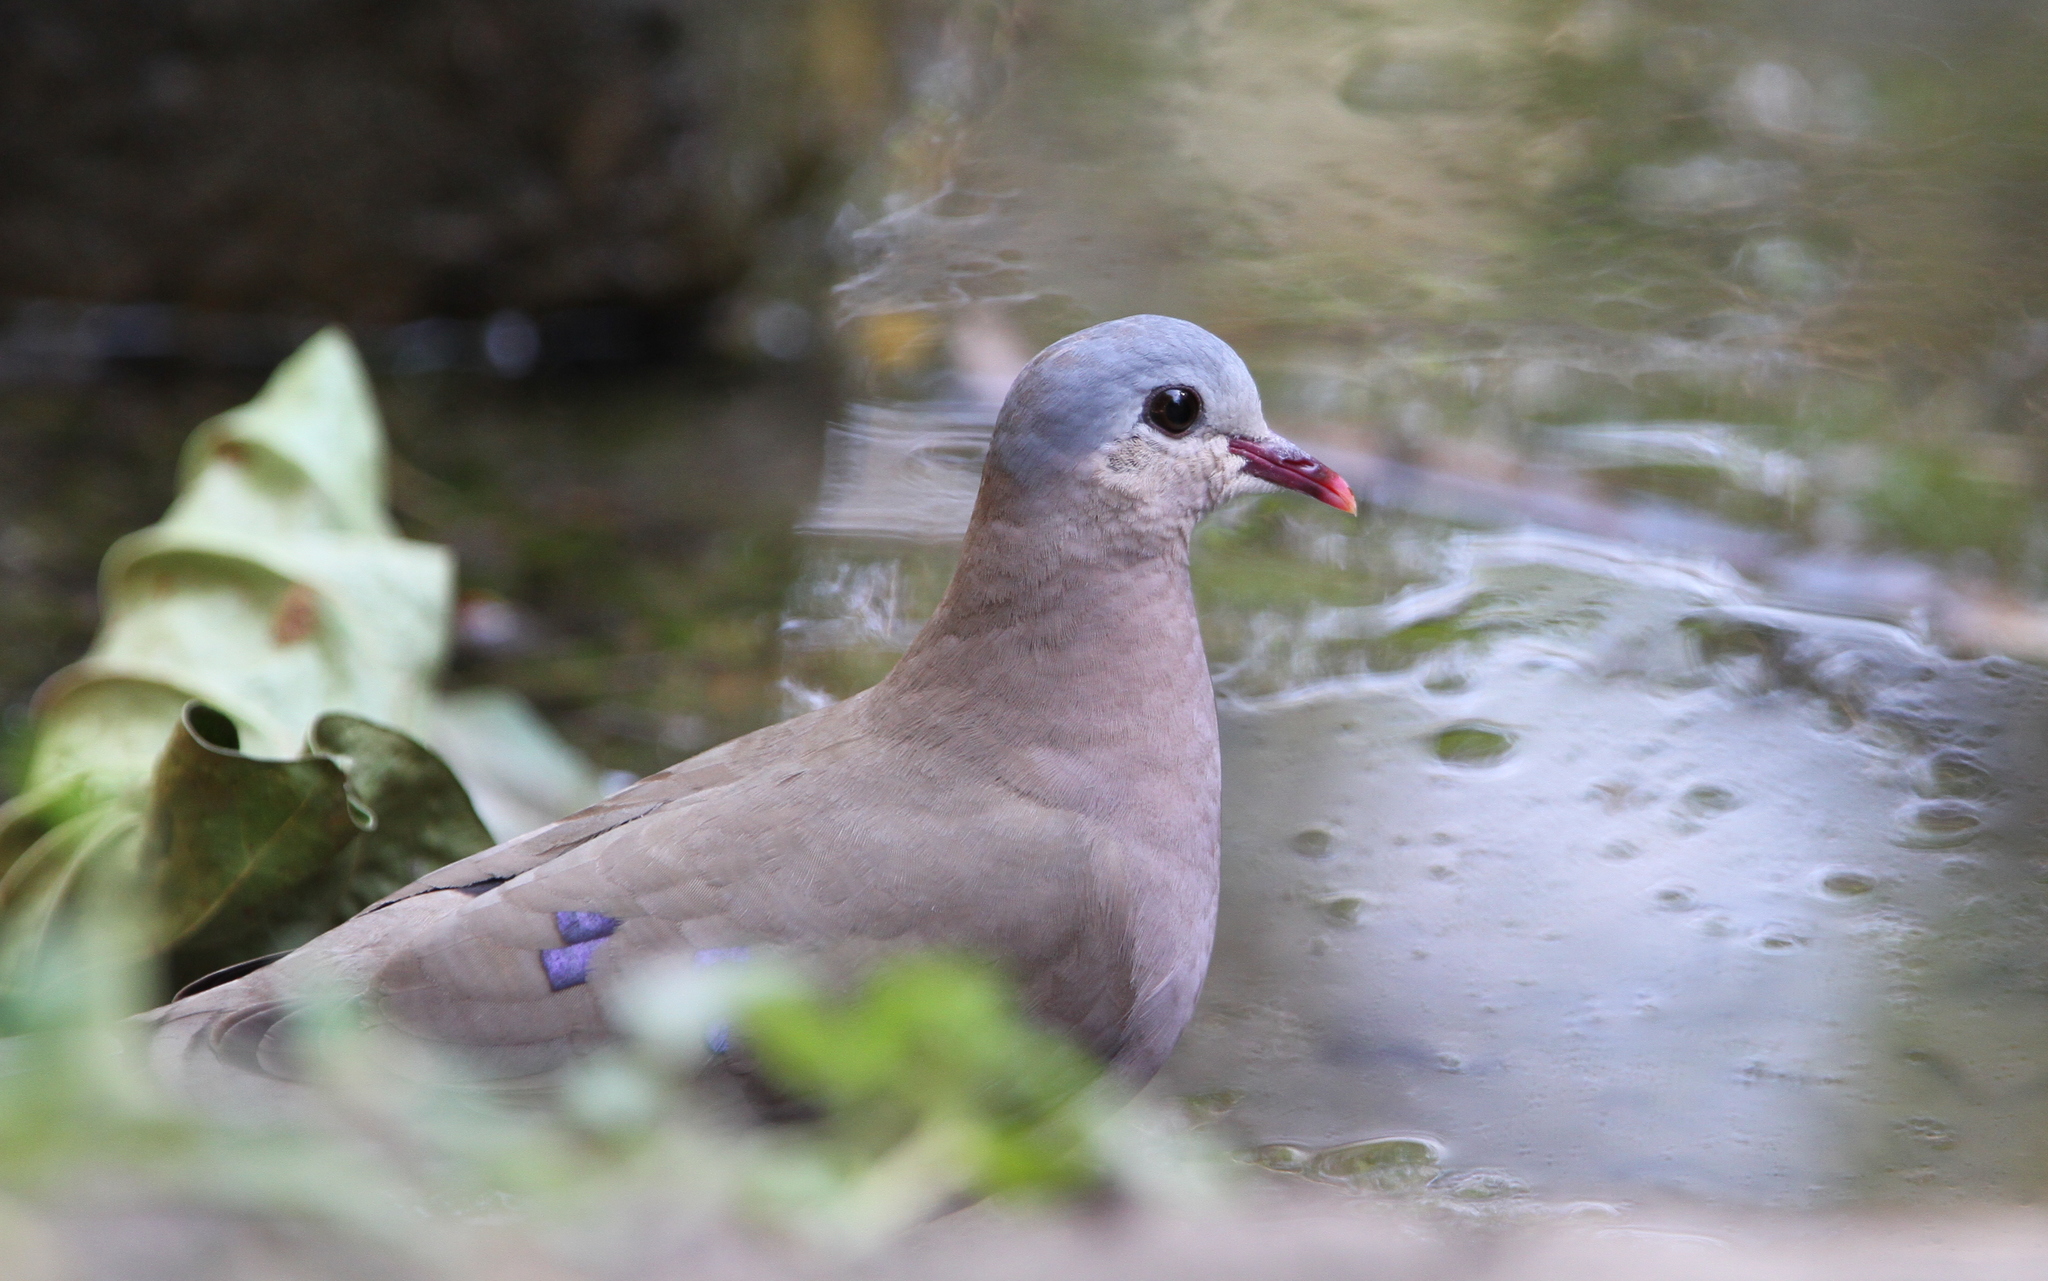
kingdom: Animalia
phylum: Chordata
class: Aves
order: Columbiformes
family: Columbidae
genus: Turtur
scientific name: Turtur afer
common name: Blue-spotted wood dove
